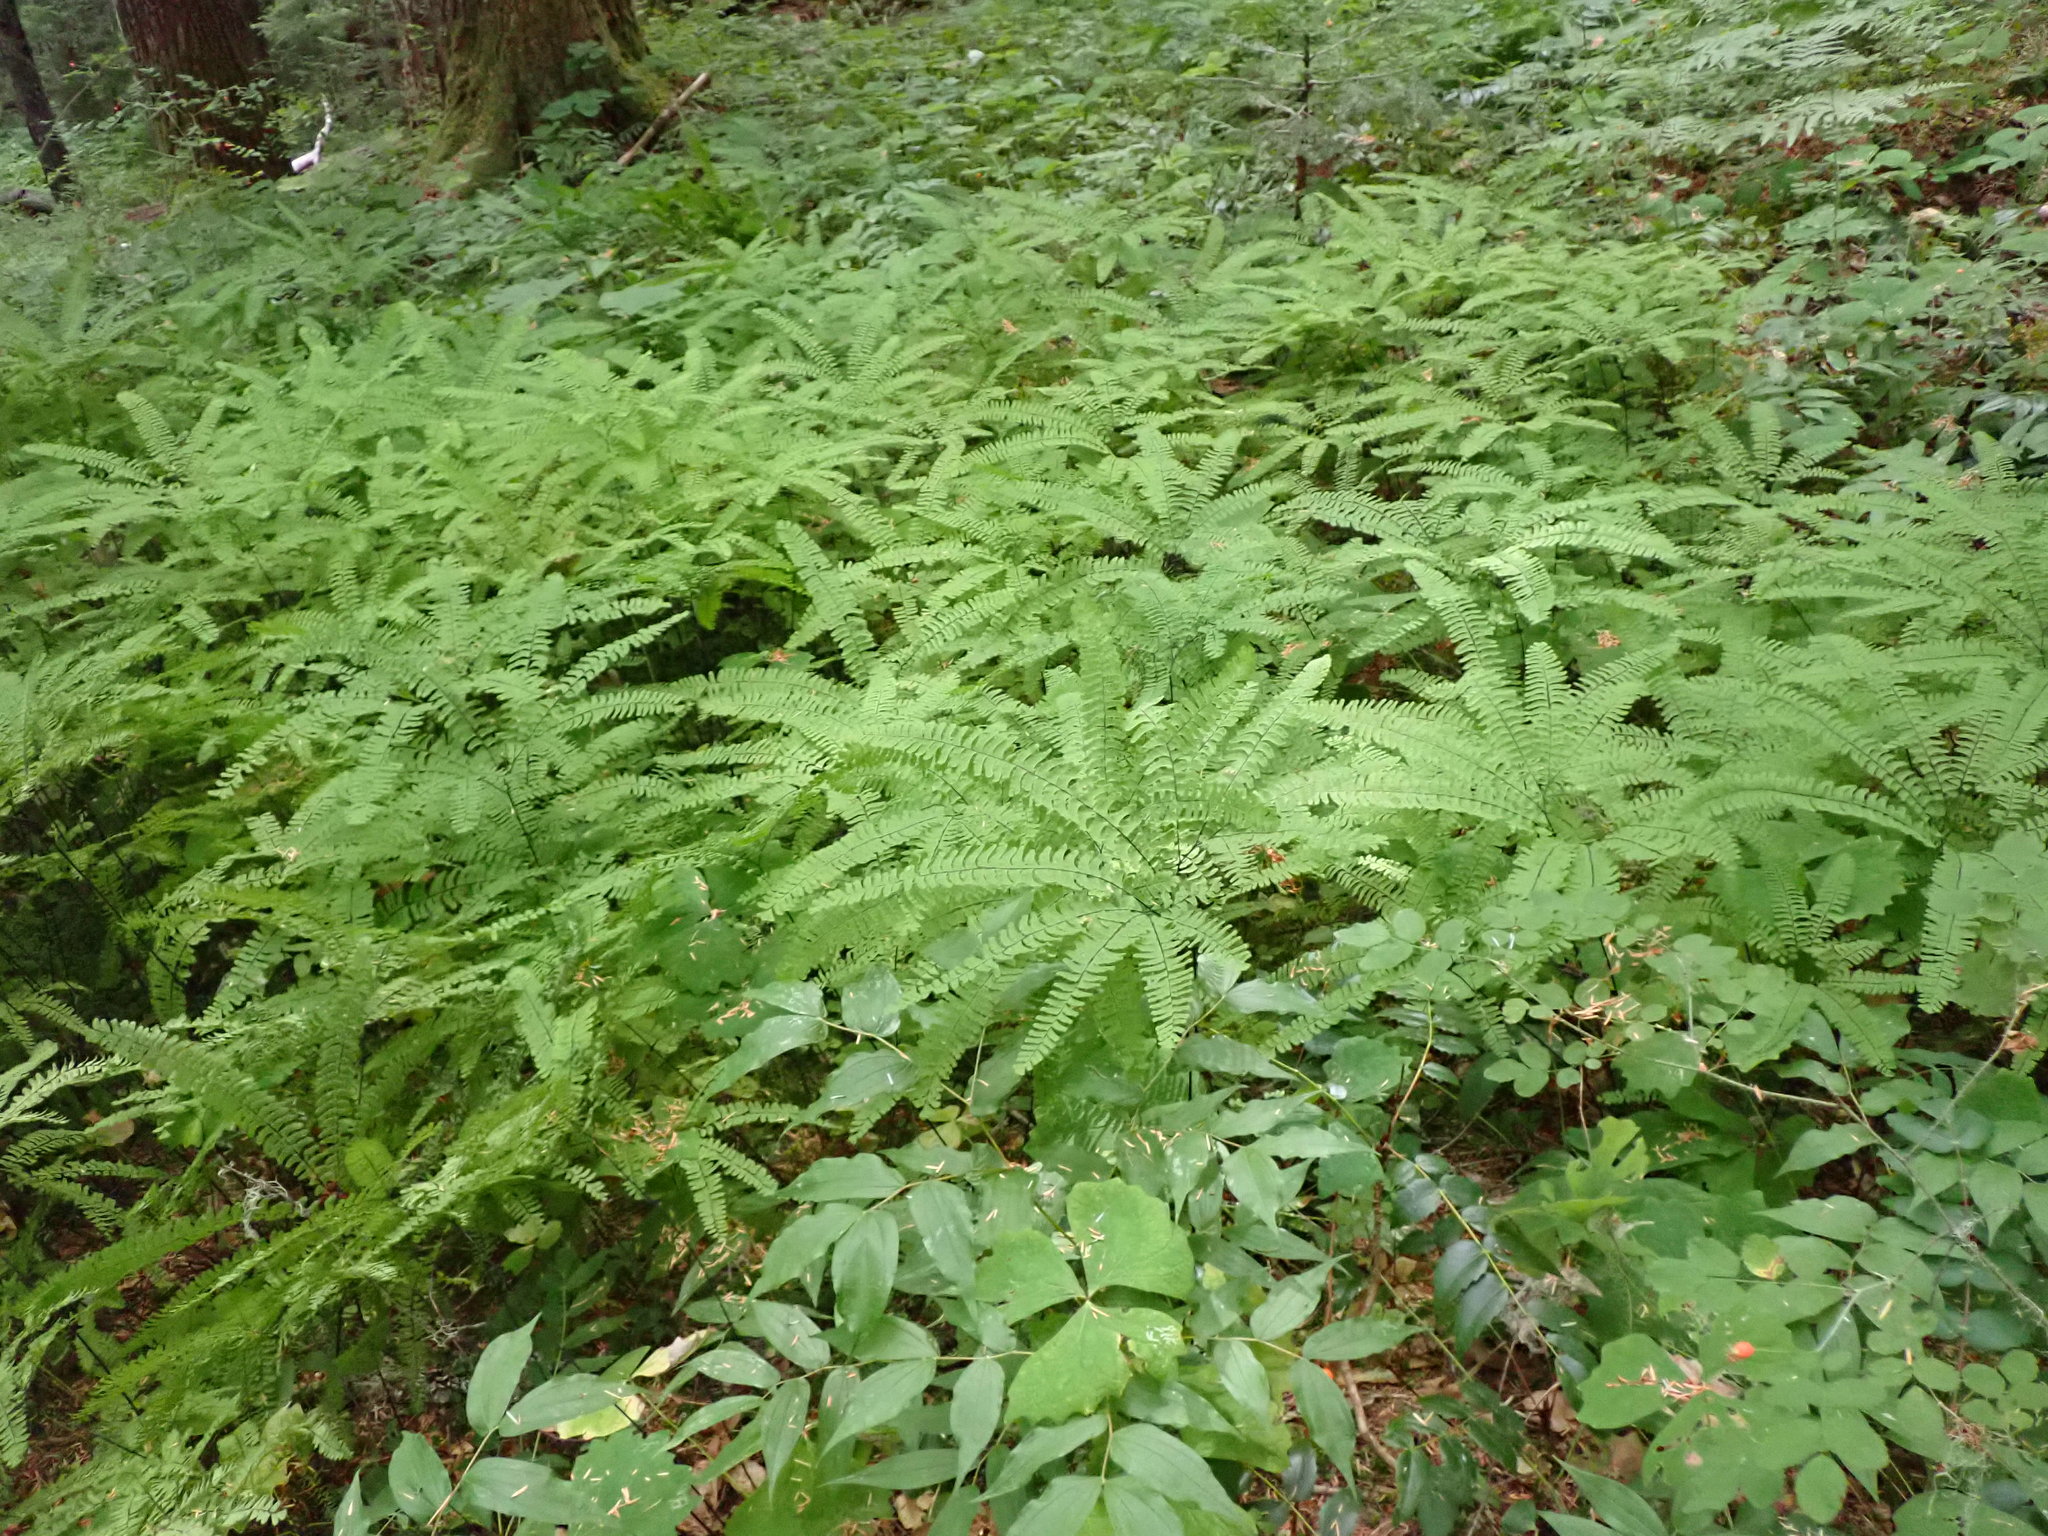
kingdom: Plantae
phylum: Tracheophyta
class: Polypodiopsida
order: Polypodiales
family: Pteridaceae
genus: Adiantum
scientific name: Adiantum aleuticum
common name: Aleutian maidenhair fern
